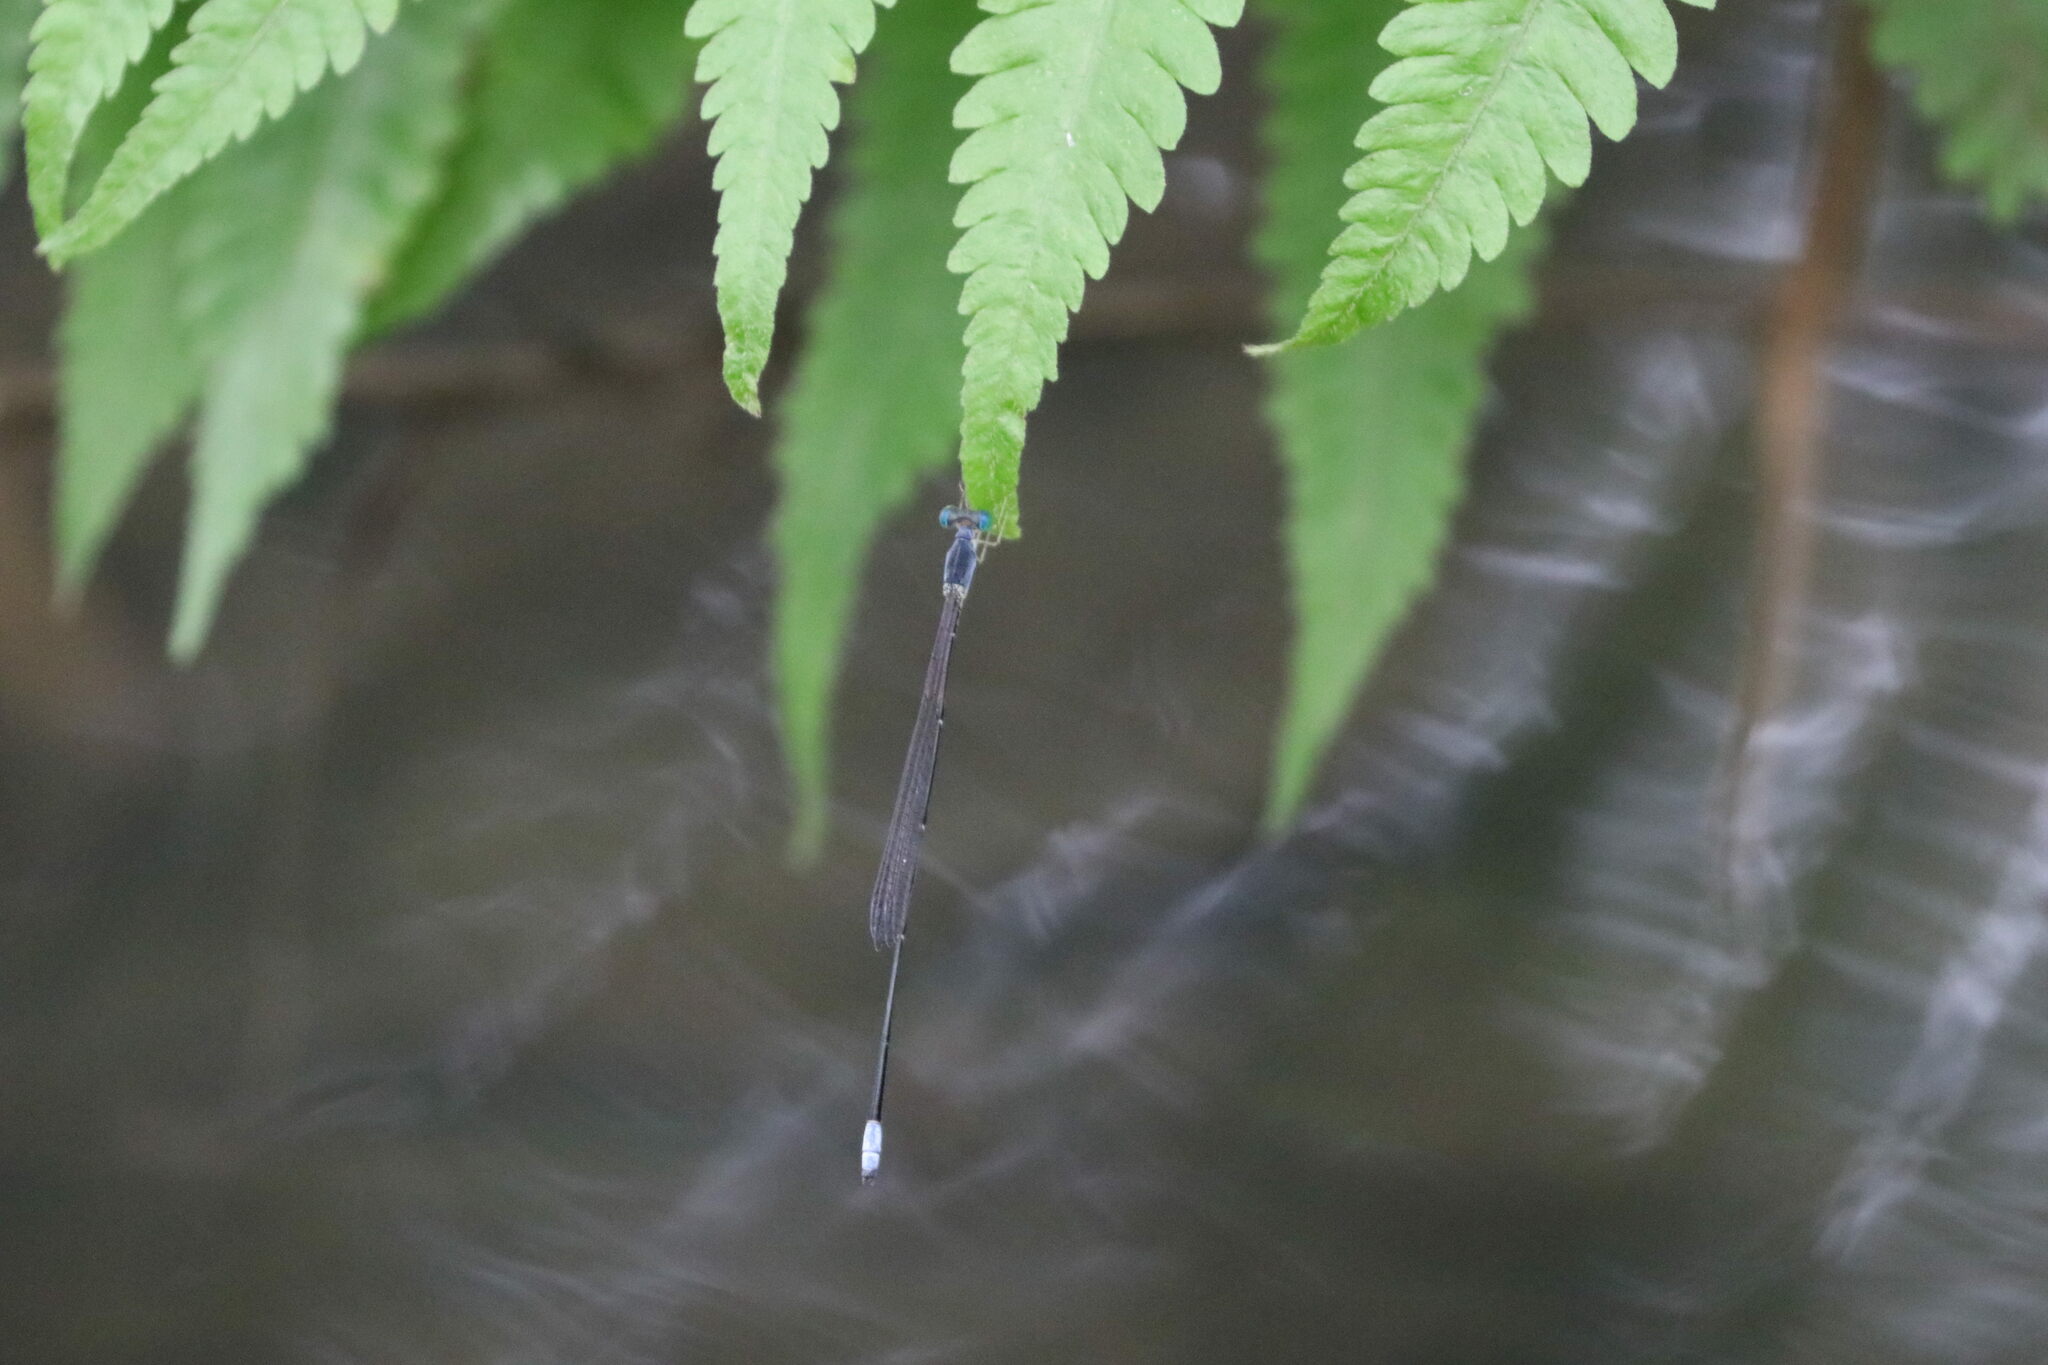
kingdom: Animalia
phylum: Arthropoda
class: Insecta
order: Odonata
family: Coenagrionidae
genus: Teinobasis
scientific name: Teinobasis samaritis
